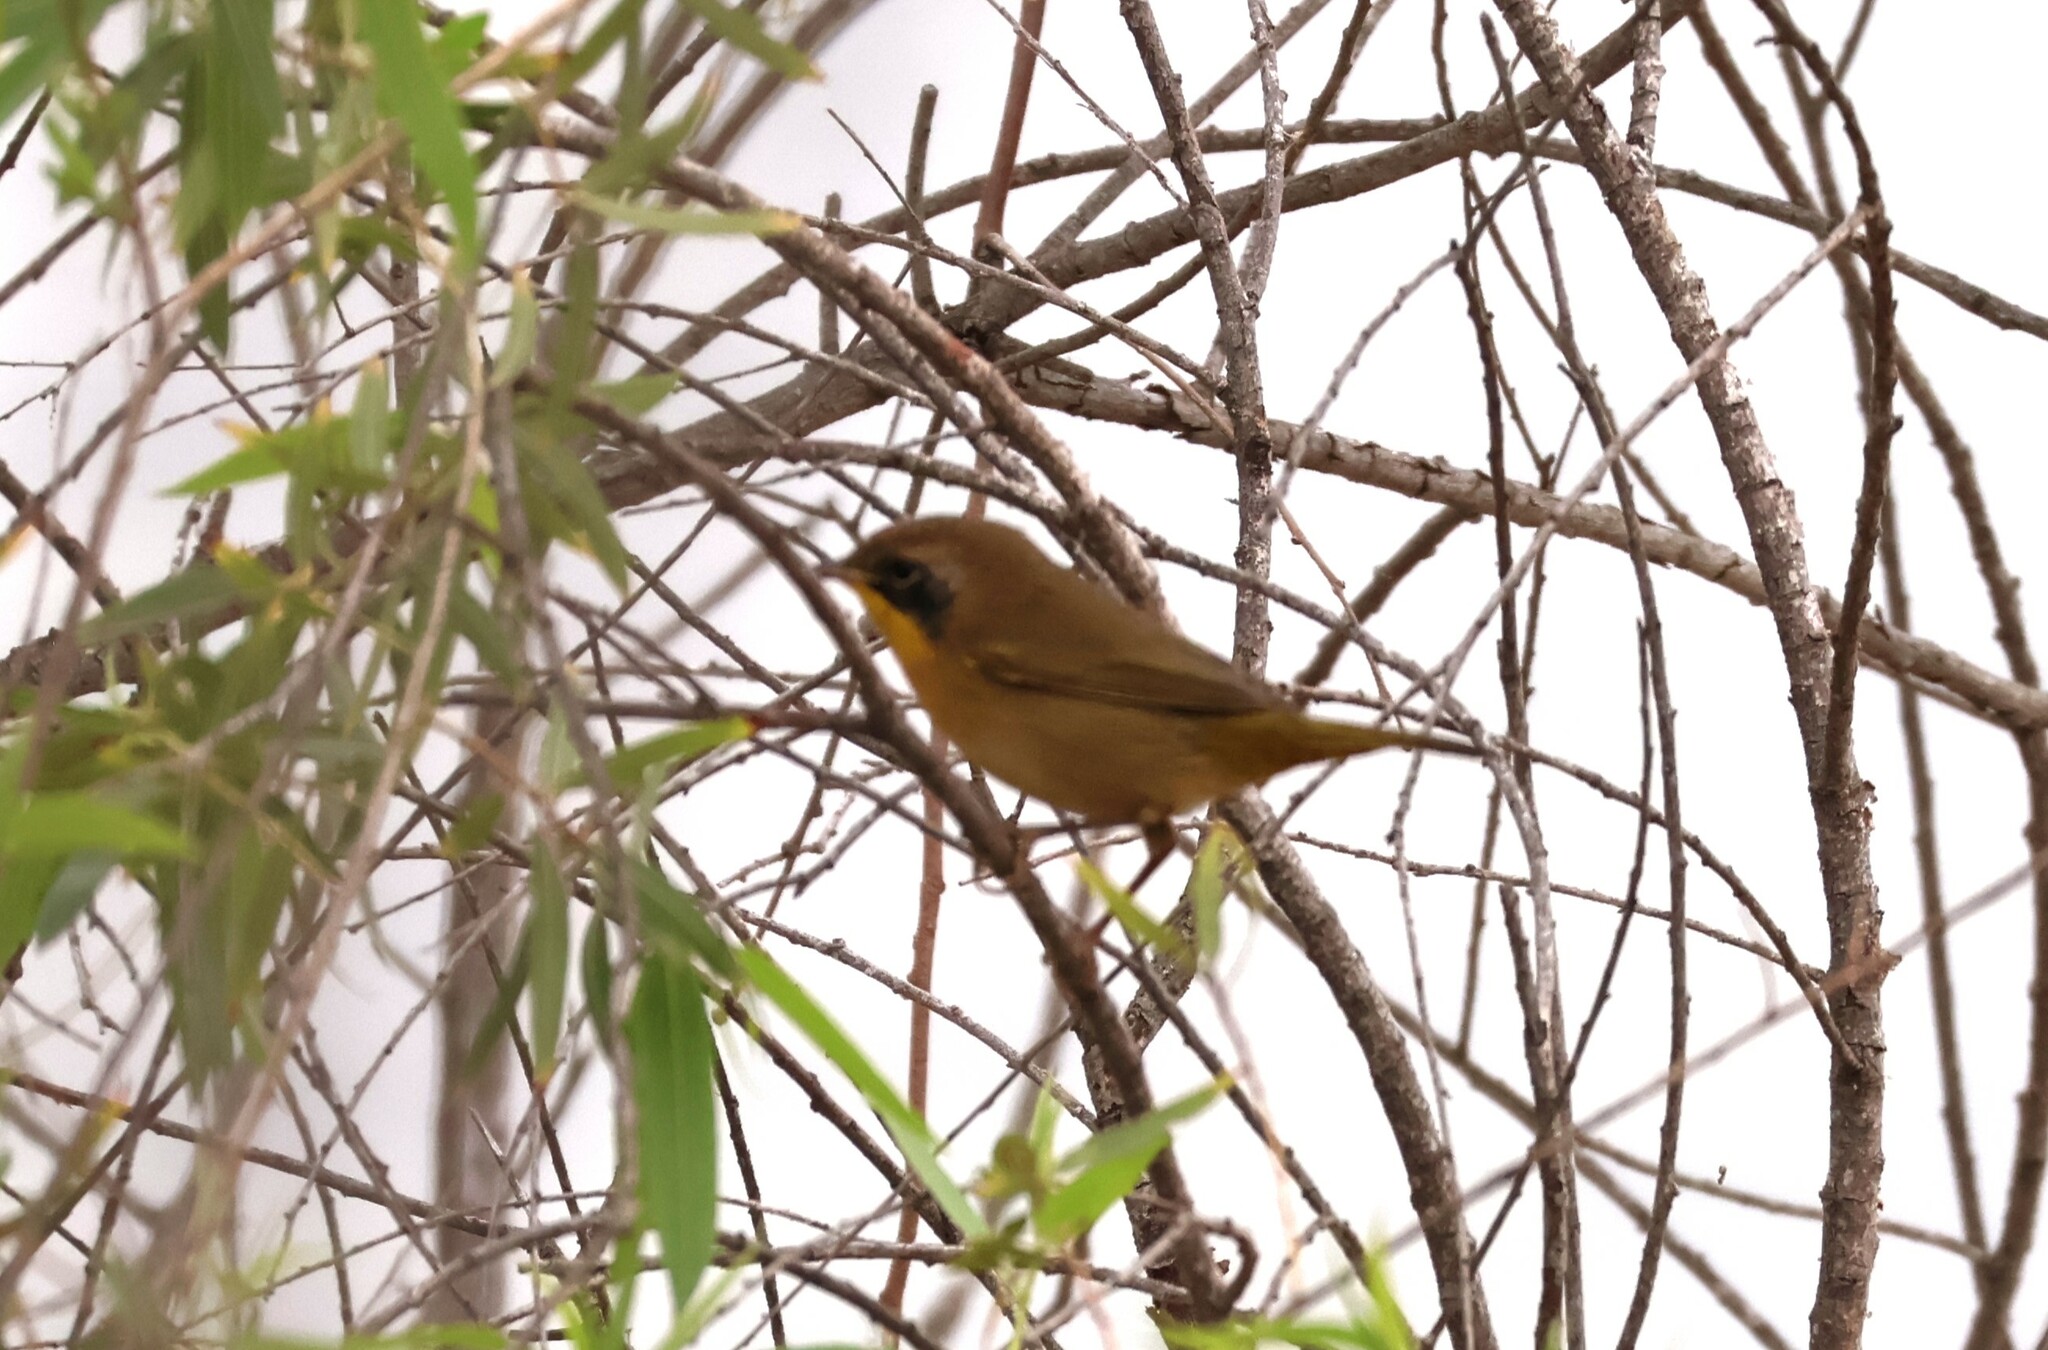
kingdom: Animalia
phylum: Chordata
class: Aves
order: Passeriformes
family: Parulidae
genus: Geothlypis
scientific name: Geothlypis trichas
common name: Common yellowthroat
